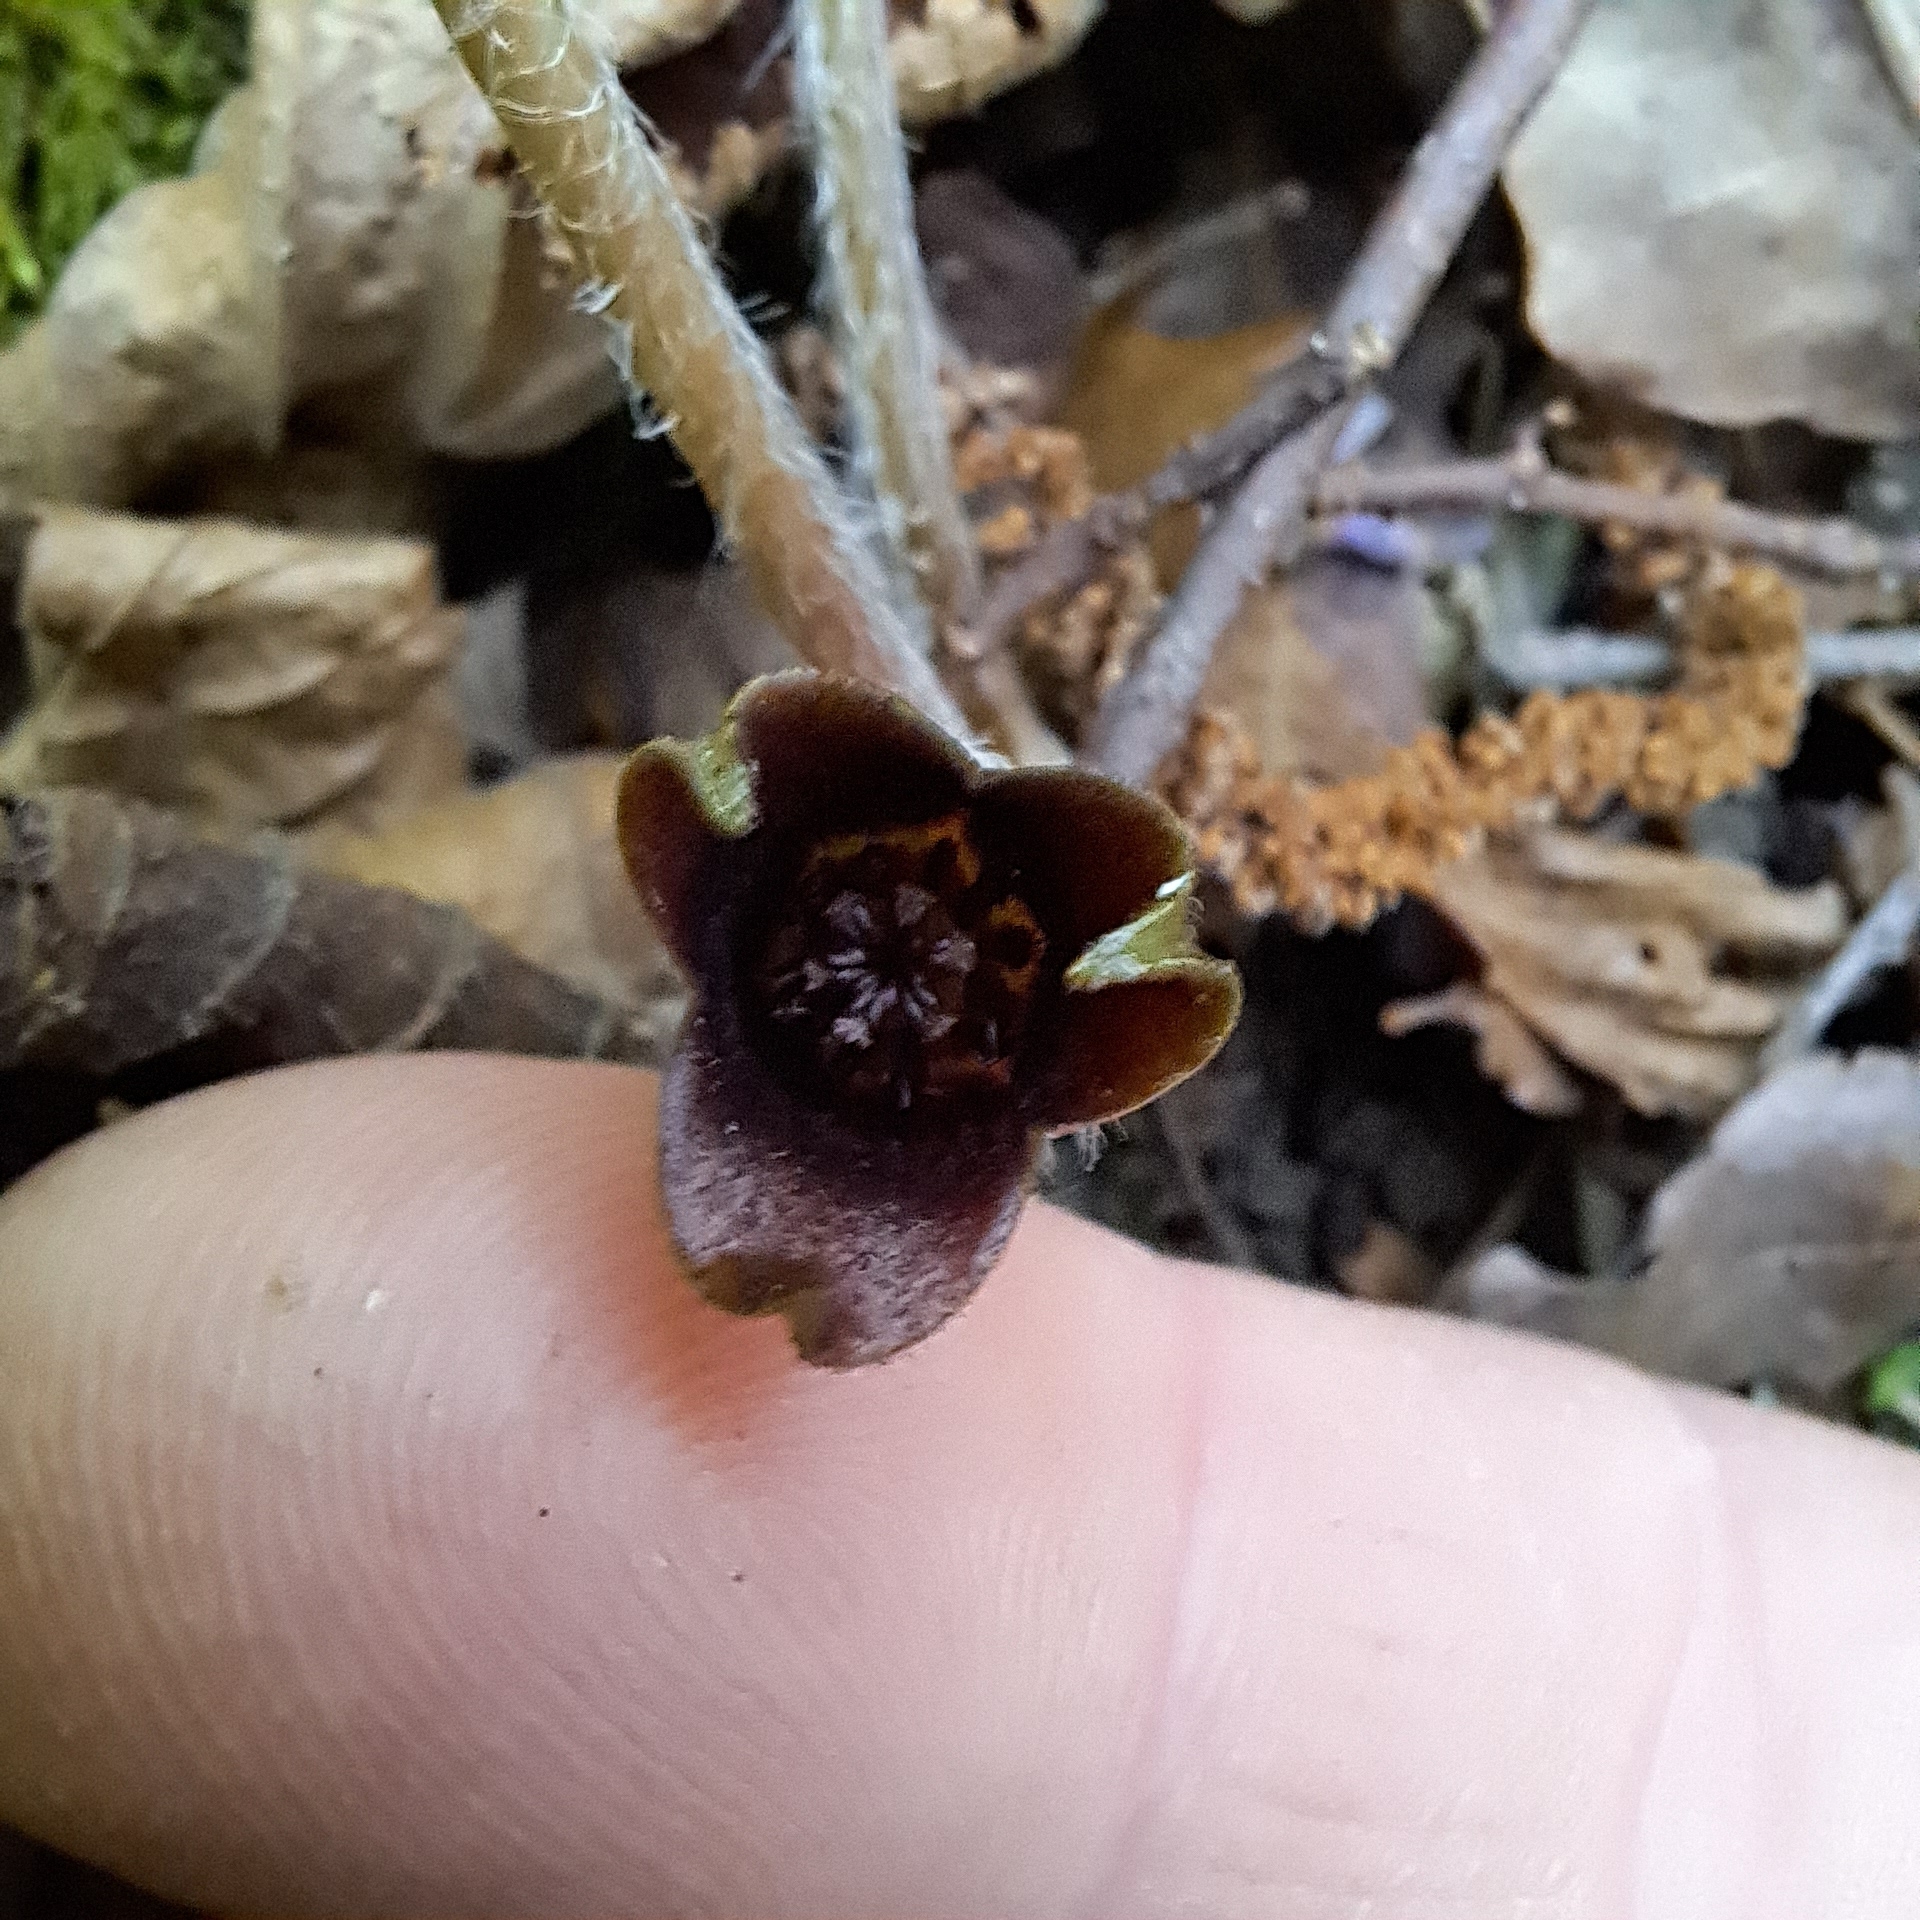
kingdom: Plantae
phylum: Tracheophyta
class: Magnoliopsida
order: Piperales
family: Aristolochiaceae
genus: Asarum
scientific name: Asarum europaeum
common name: Asarabacca
